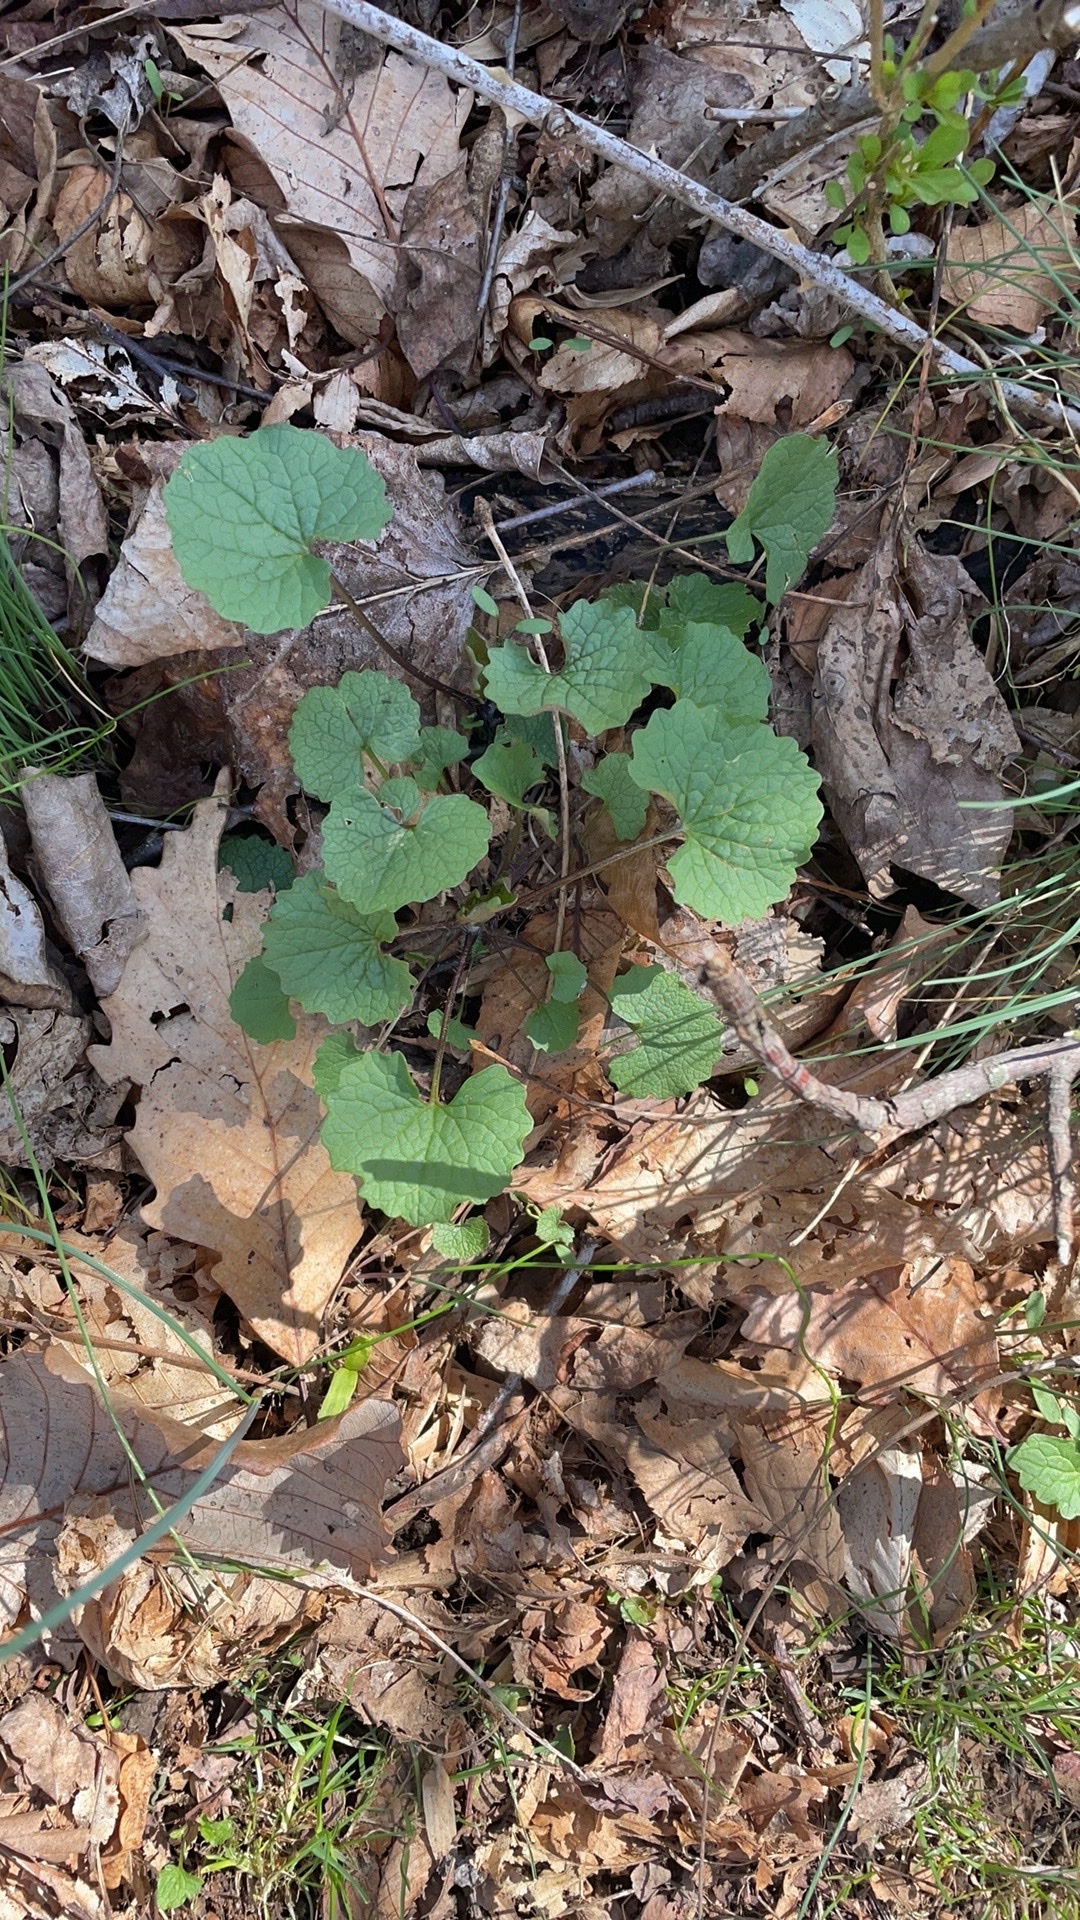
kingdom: Plantae
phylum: Tracheophyta
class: Magnoliopsida
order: Brassicales
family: Brassicaceae
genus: Alliaria
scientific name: Alliaria petiolata
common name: Garlic mustard
